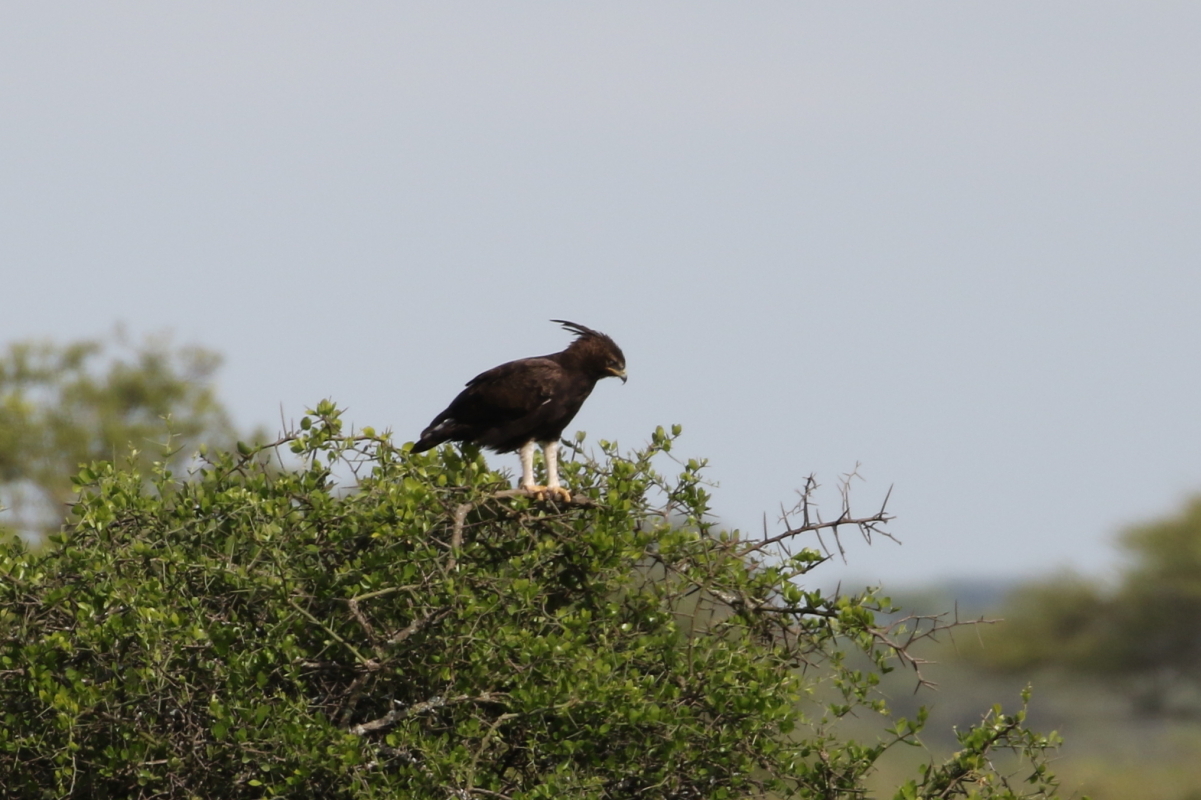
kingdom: Animalia
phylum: Chordata
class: Aves
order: Accipitriformes
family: Accipitridae
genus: Lophaetus
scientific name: Lophaetus occipitalis
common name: Long-crested eagle
